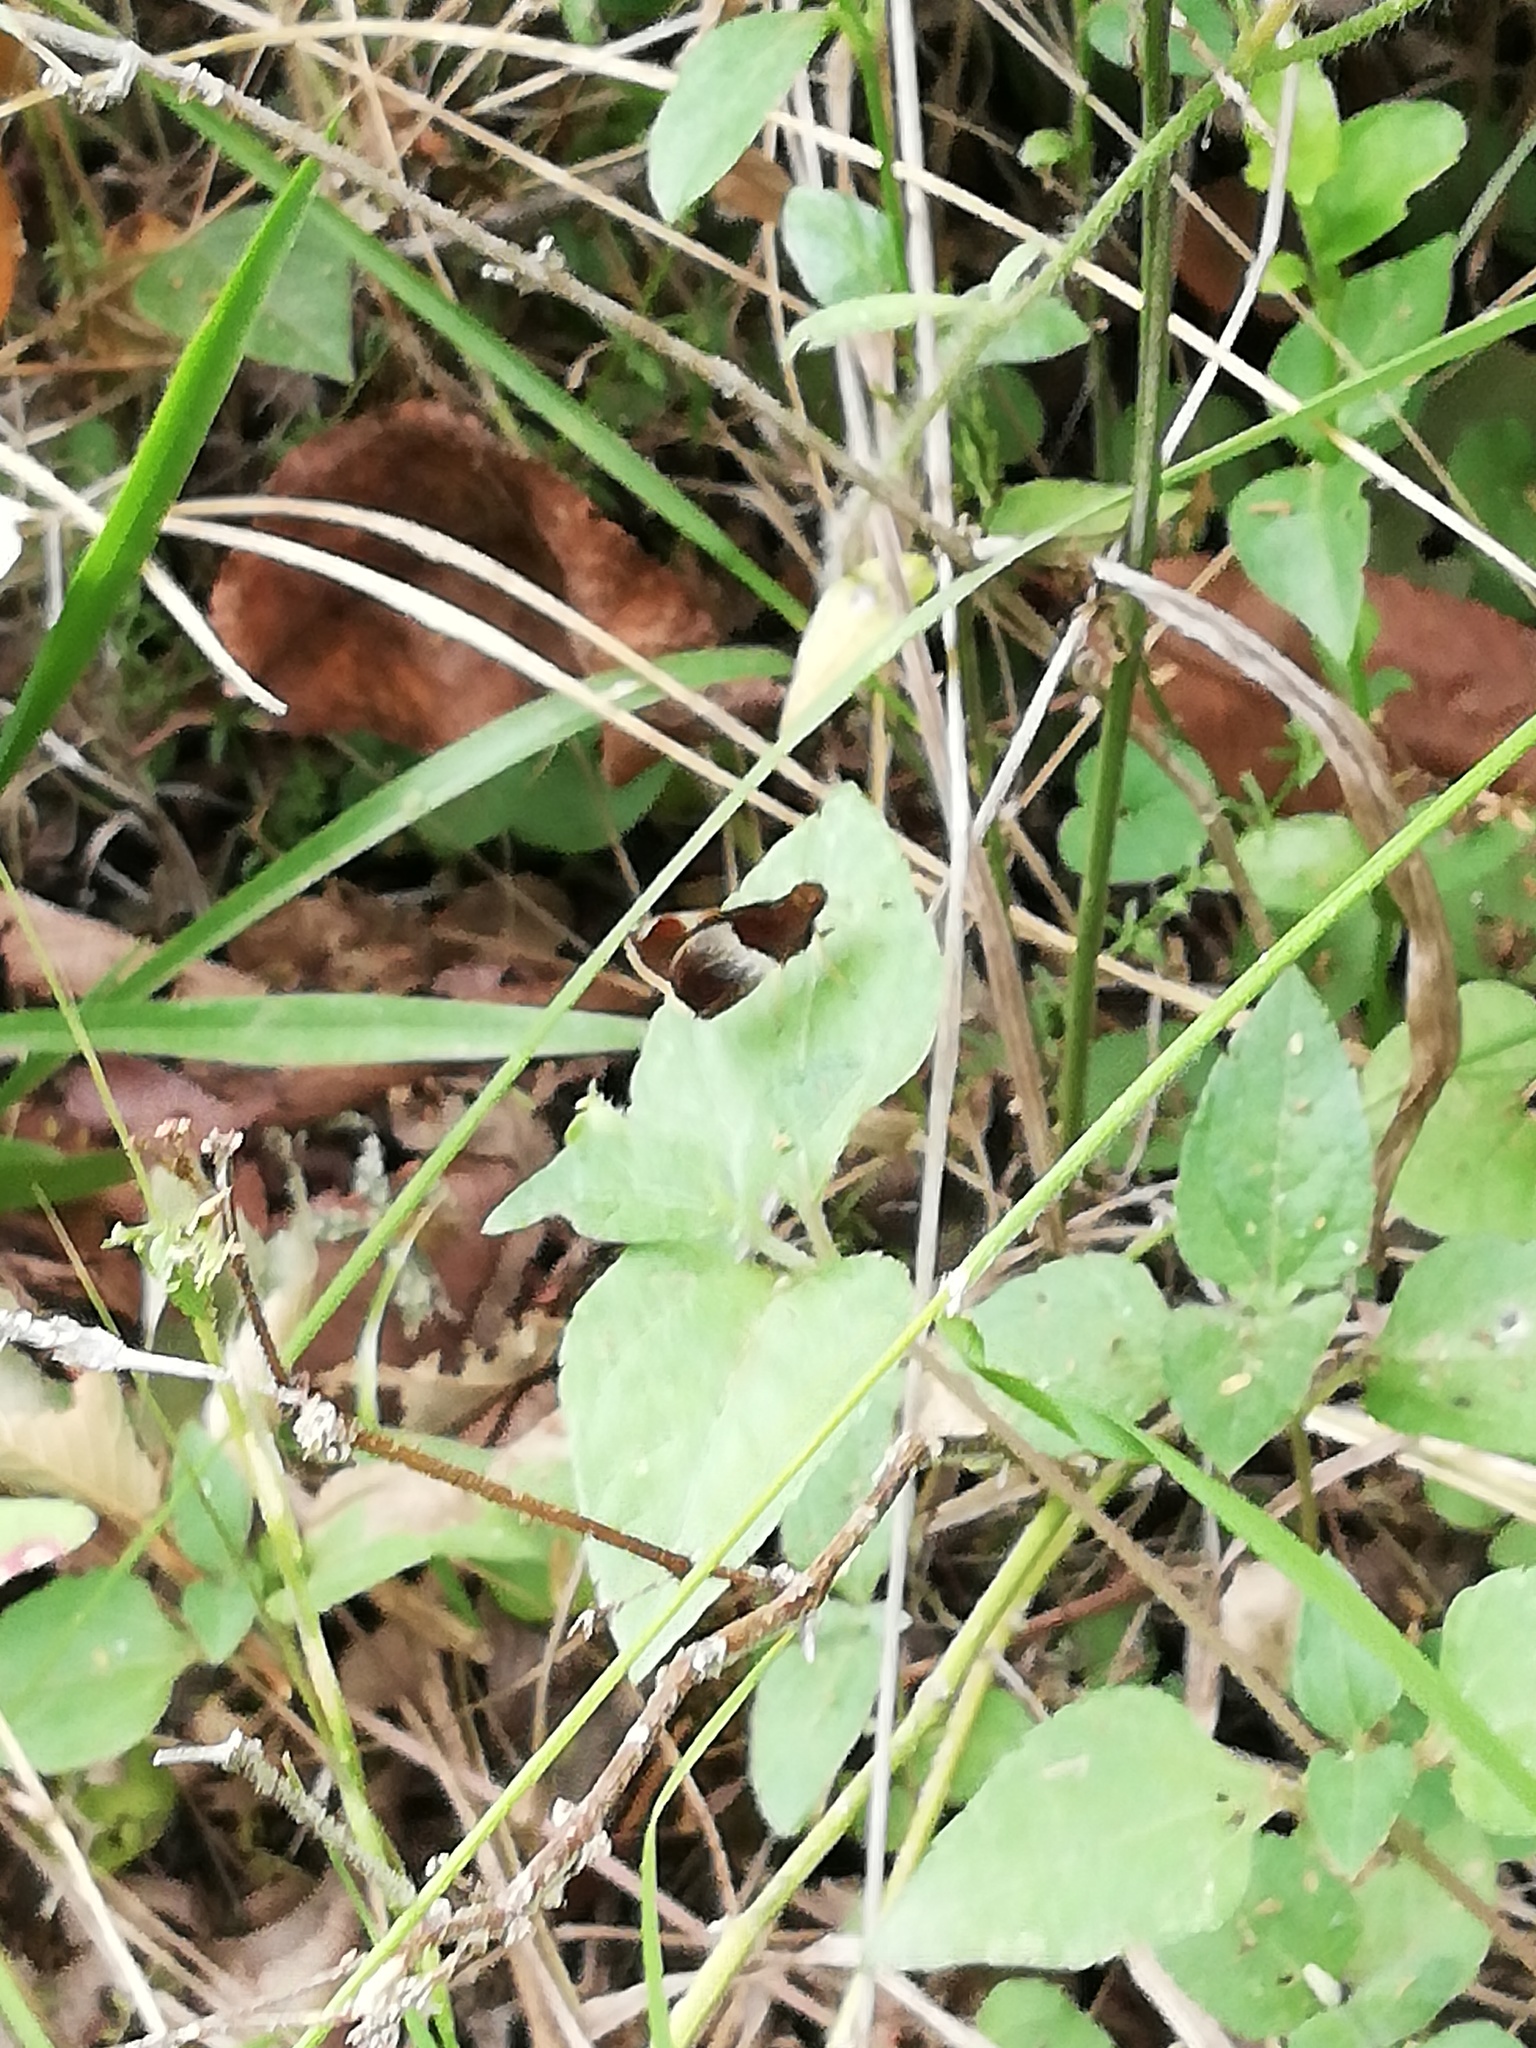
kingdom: Animalia
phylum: Arthropoda
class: Insecta
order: Lepidoptera
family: Hesperiidae
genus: Moeris
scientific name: Moeris Remella rita
